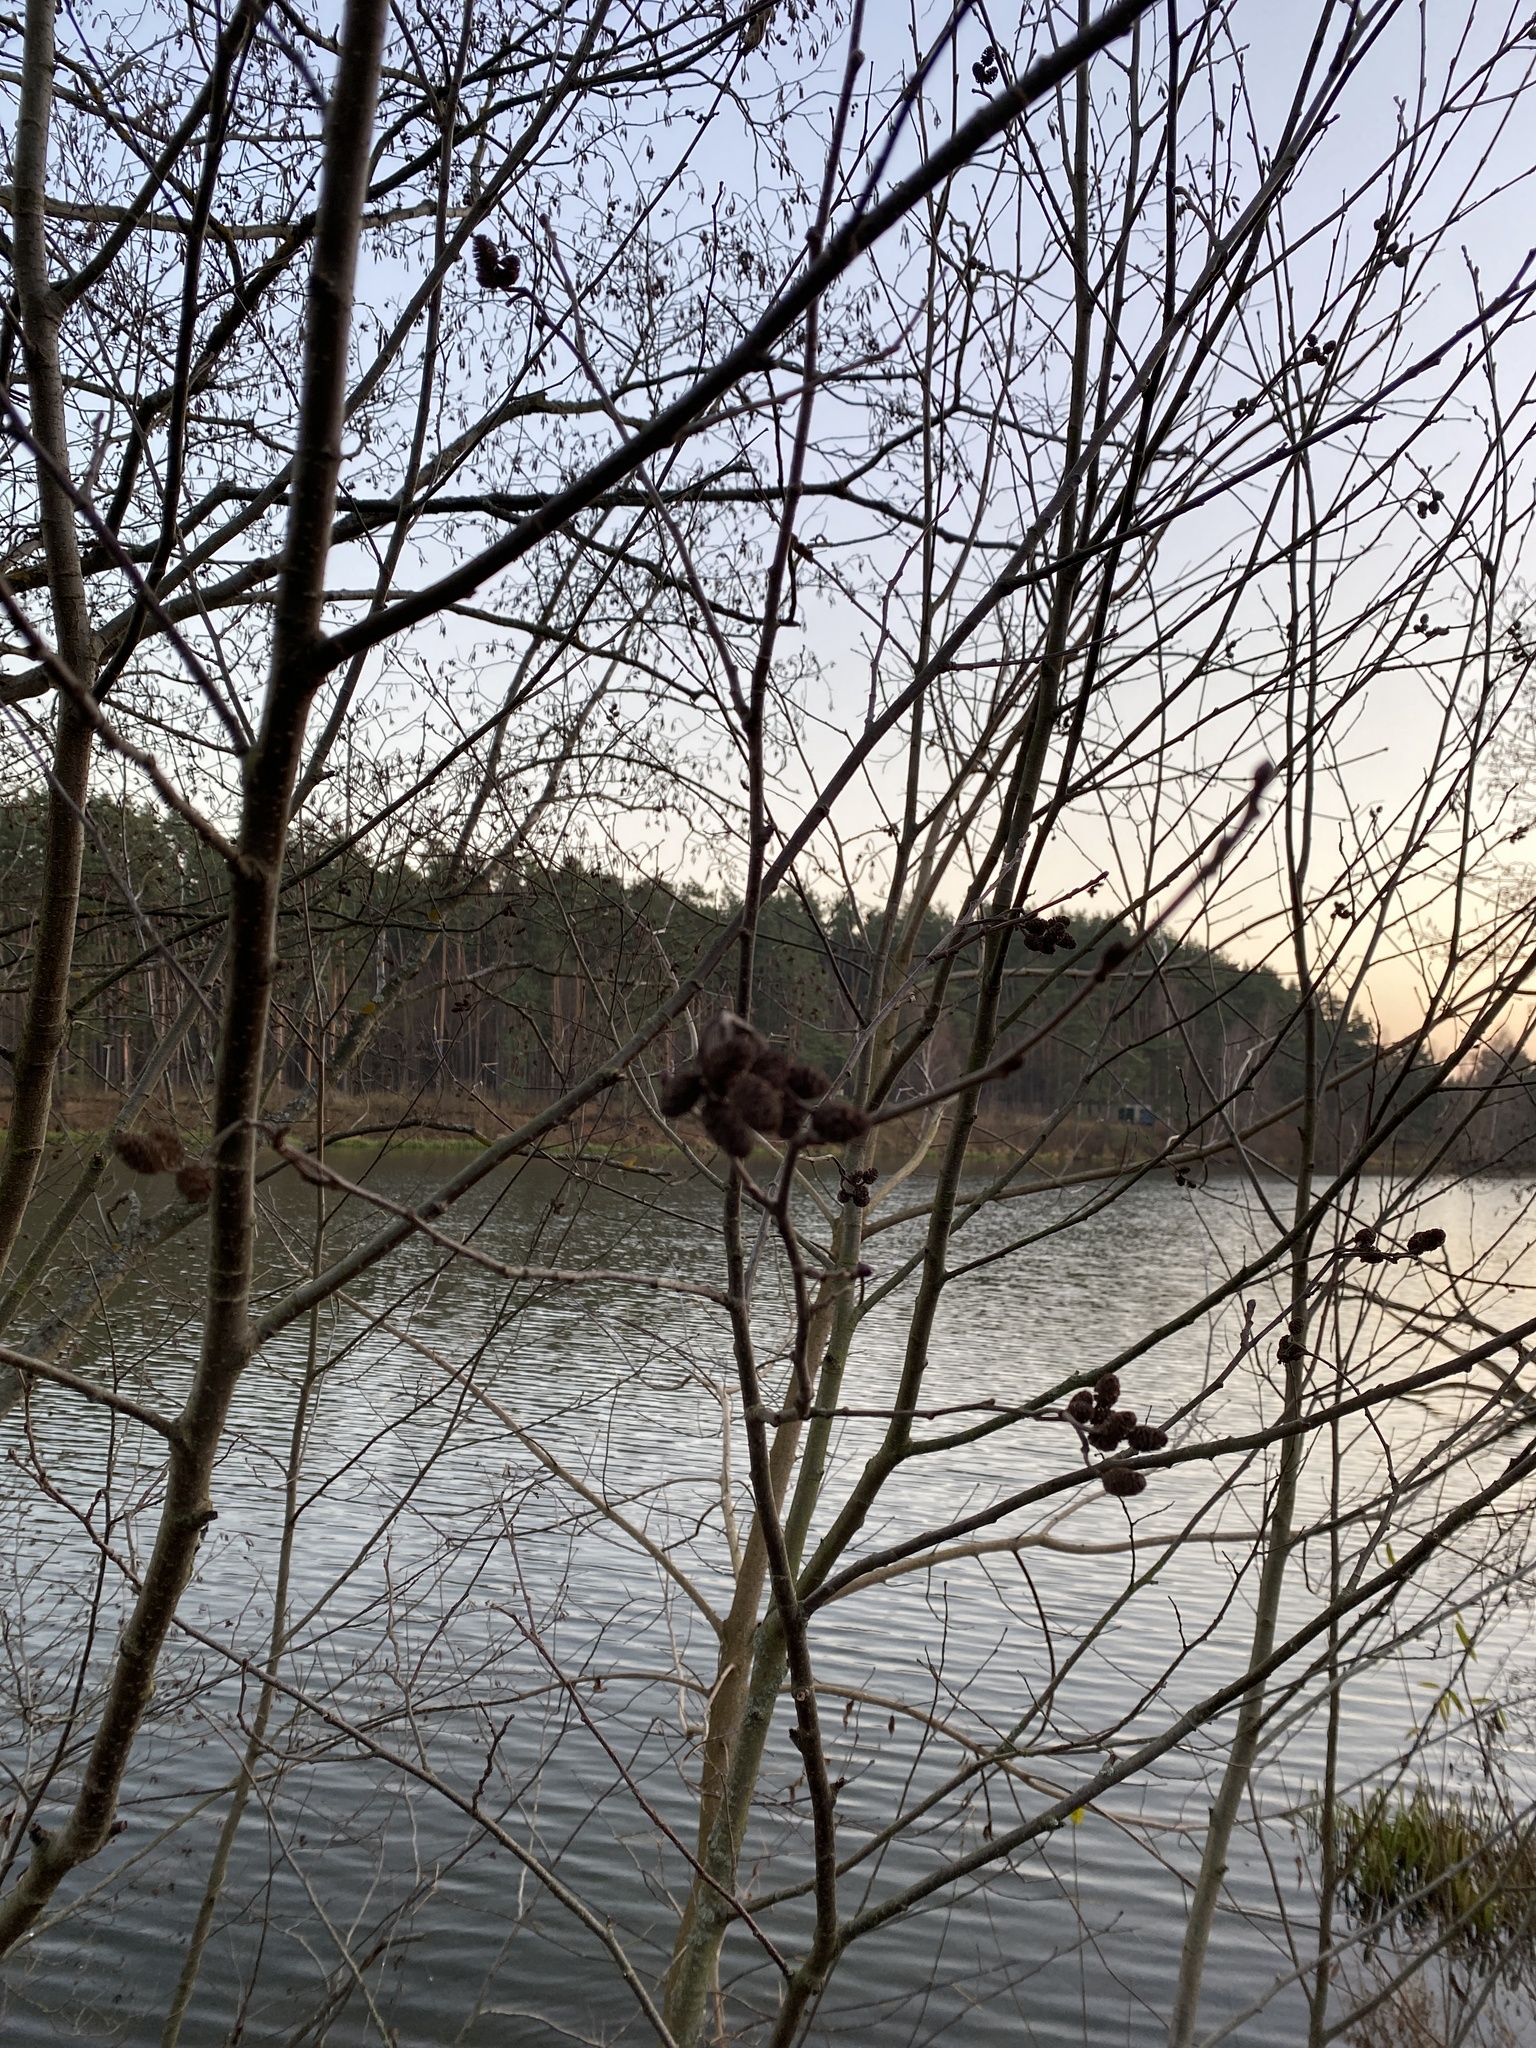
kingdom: Plantae
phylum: Tracheophyta
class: Magnoliopsida
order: Fagales
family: Betulaceae
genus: Alnus
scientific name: Alnus glutinosa
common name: Black alder
